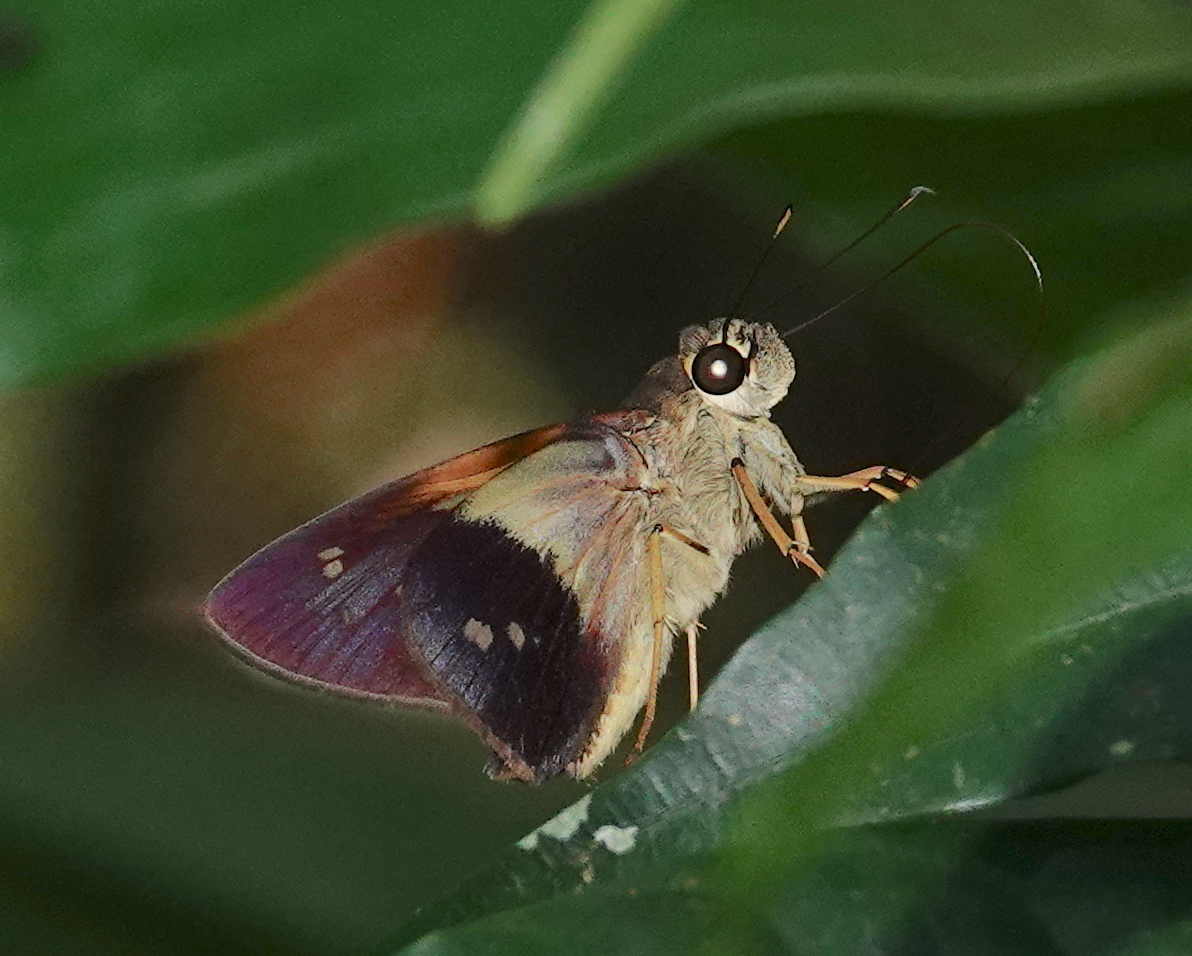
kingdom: Animalia
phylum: Arthropoda
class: Insecta
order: Lepidoptera
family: Hesperiidae
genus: Calpodes
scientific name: Calpodes
